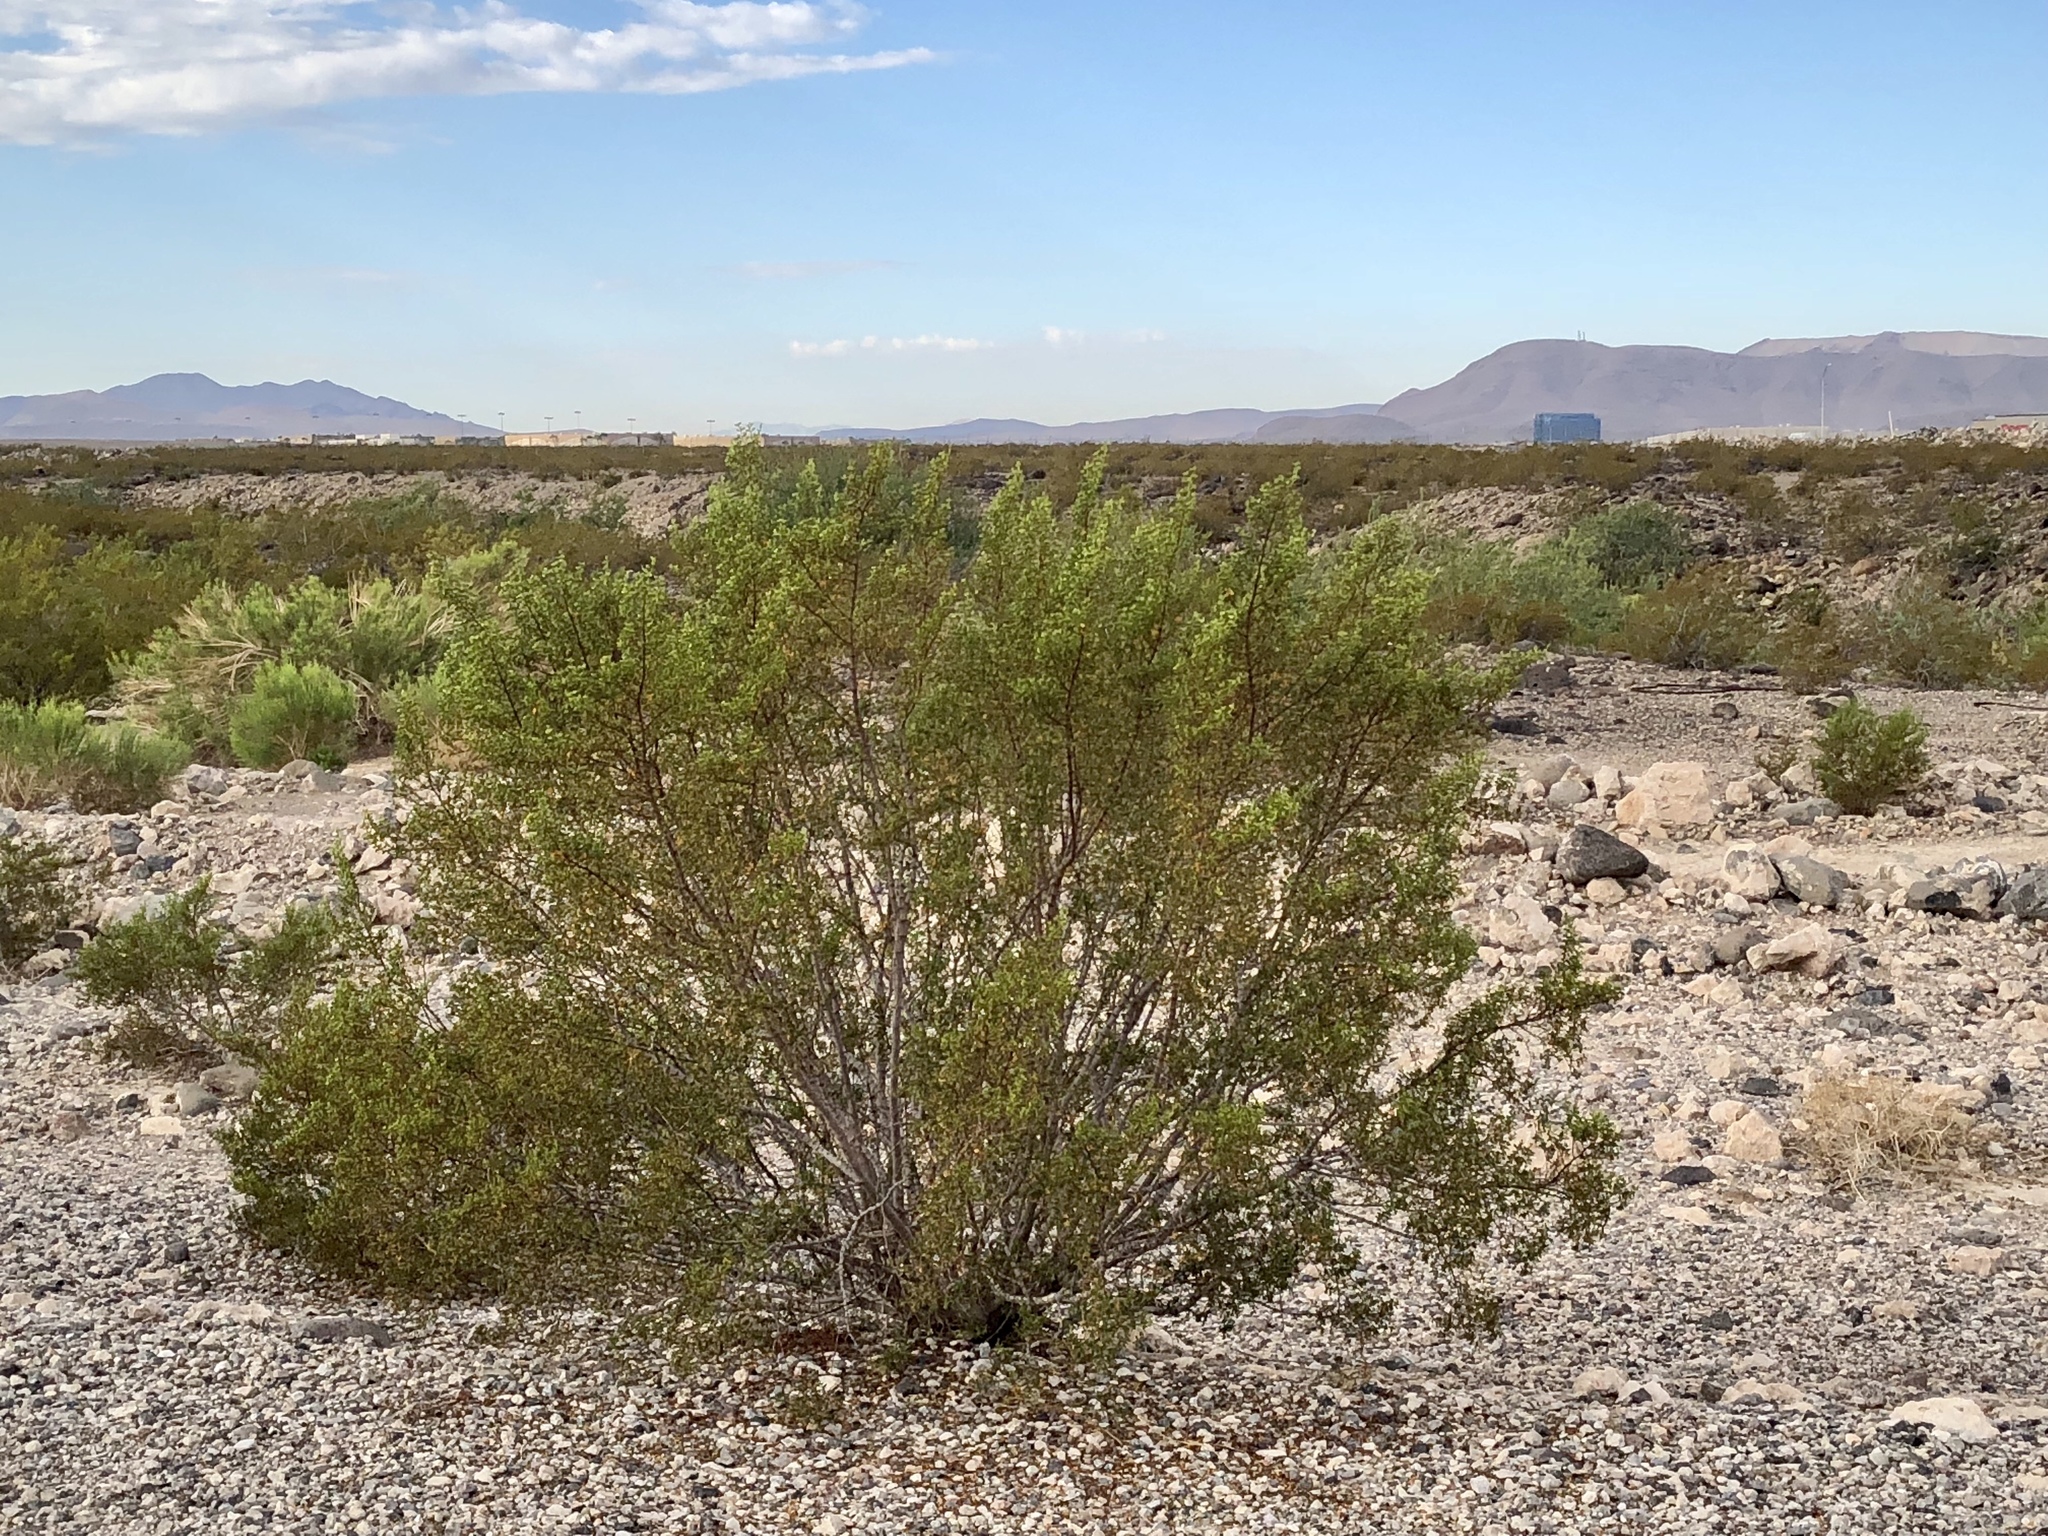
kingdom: Plantae
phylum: Tracheophyta
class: Magnoliopsida
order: Zygophyllales
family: Zygophyllaceae
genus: Larrea
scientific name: Larrea tridentata
